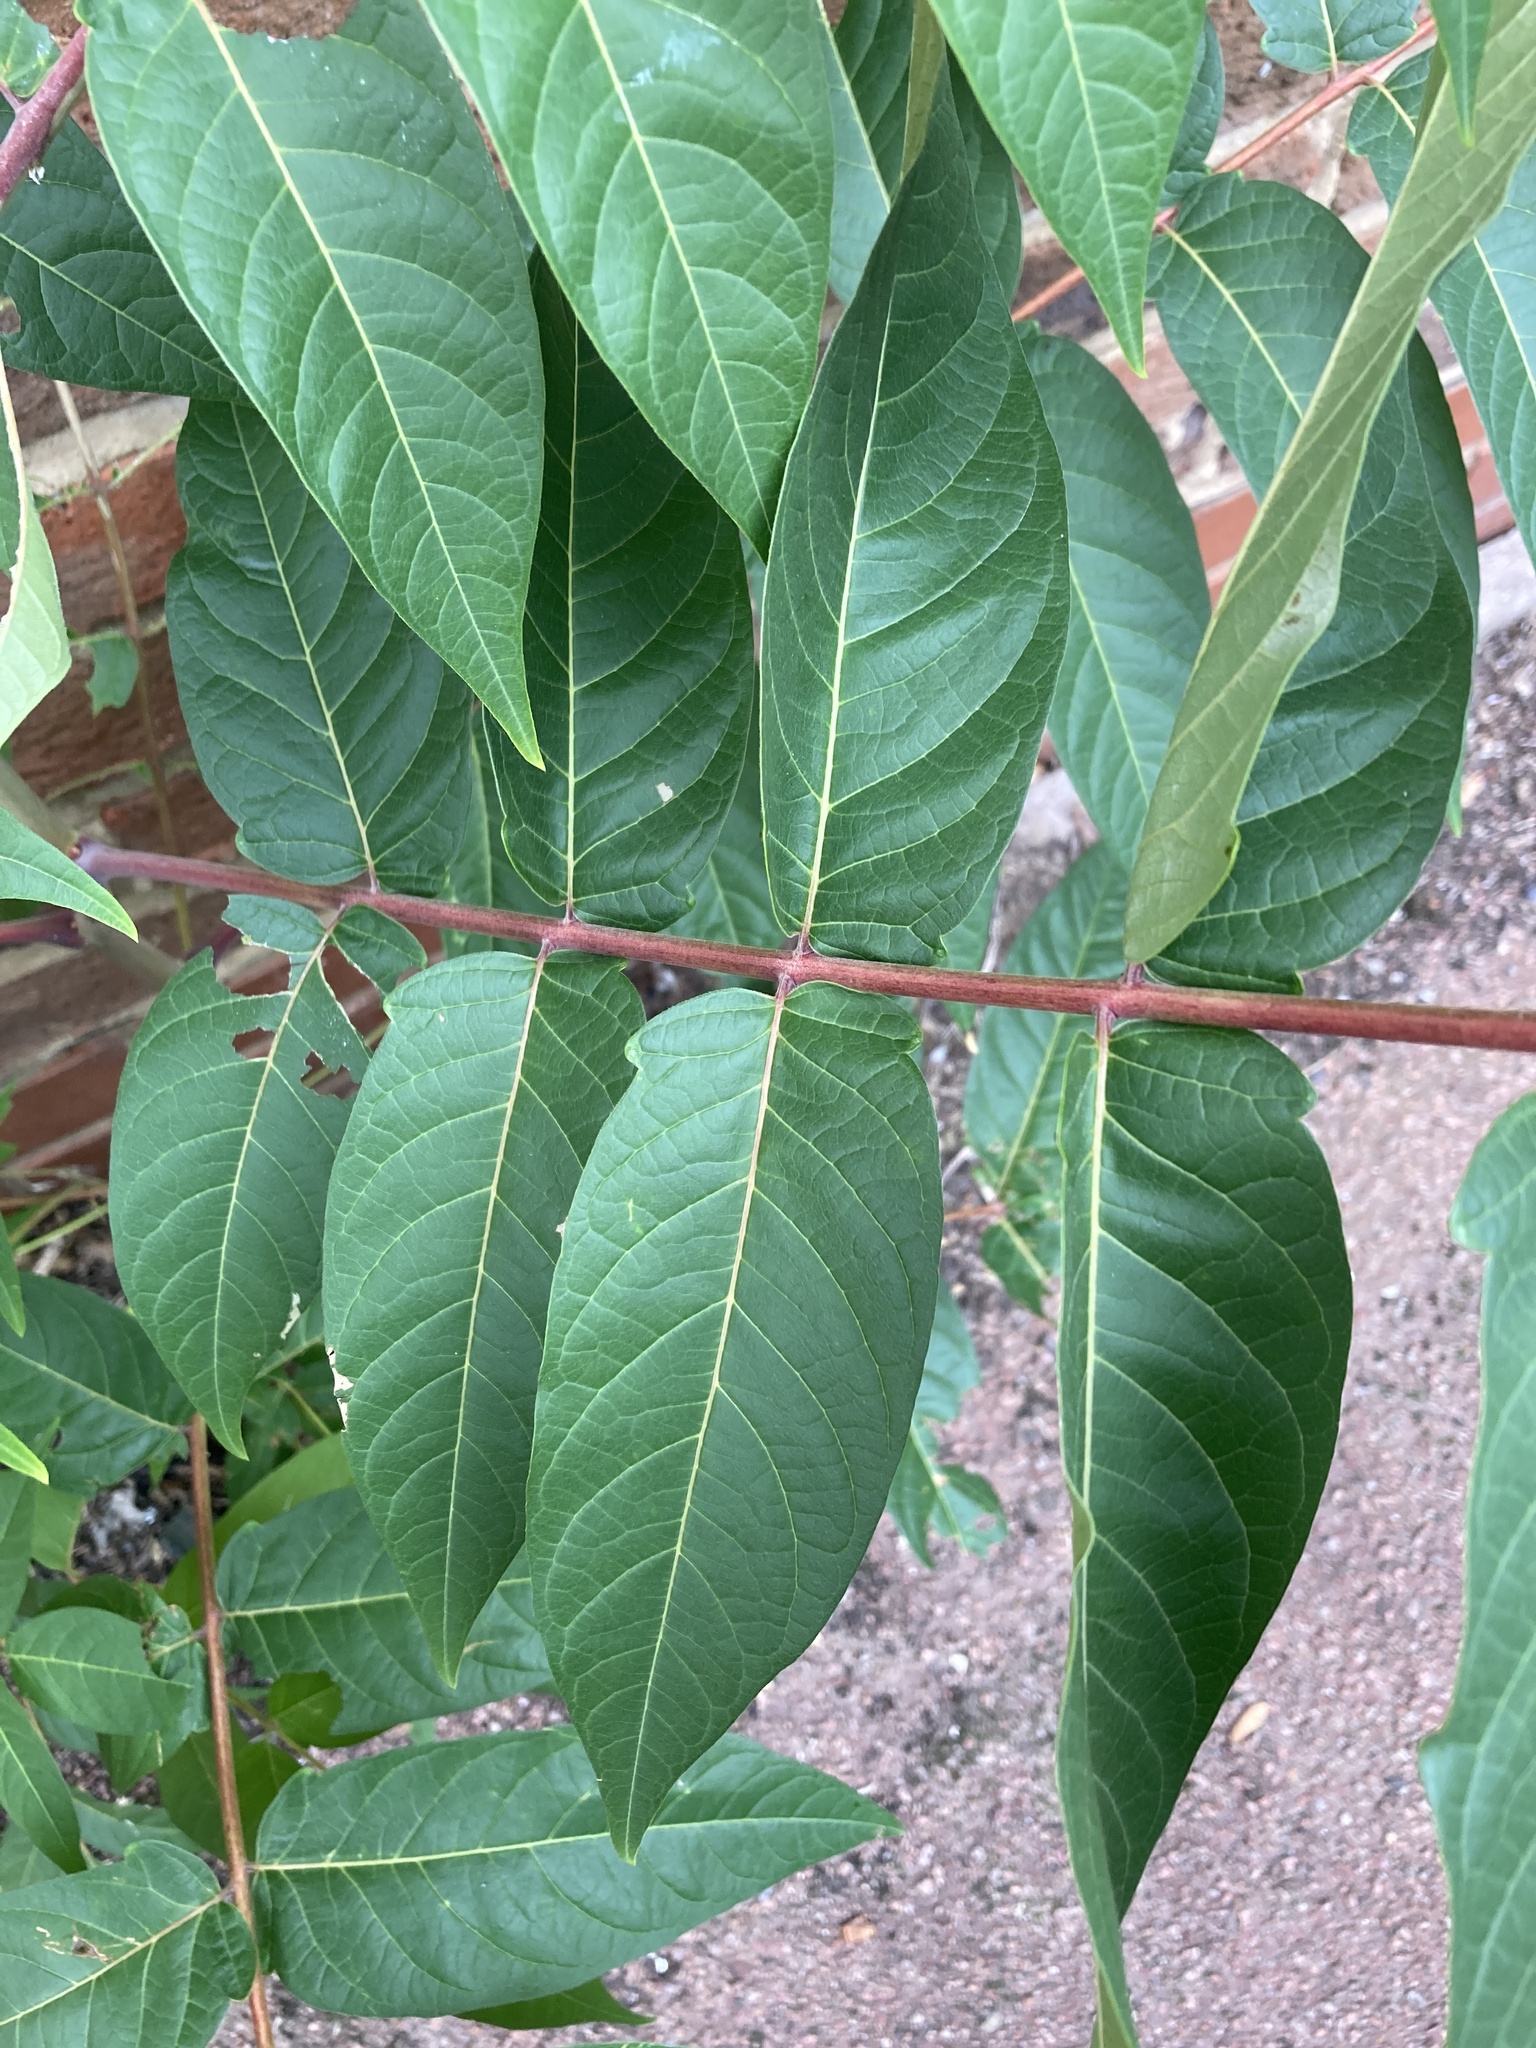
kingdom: Plantae
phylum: Tracheophyta
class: Magnoliopsida
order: Sapindales
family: Simaroubaceae
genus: Ailanthus
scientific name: Ailanthus altissima
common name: Tree-of-heaven
